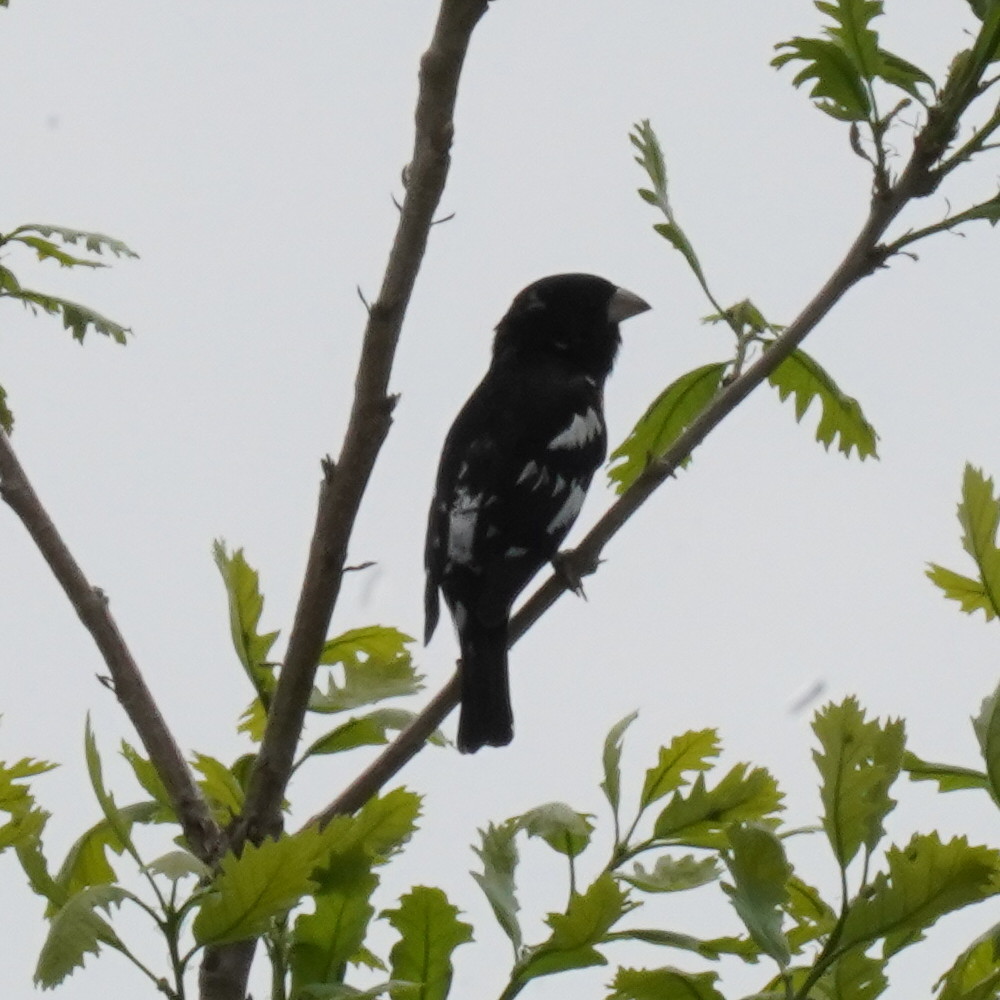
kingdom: Animalia
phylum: Chordata
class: Aves
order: Passeriformes
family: Cardinalidae
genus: Pheucticus
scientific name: Pheucticus ludovicianus
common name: Rose-breasted grosbeak
